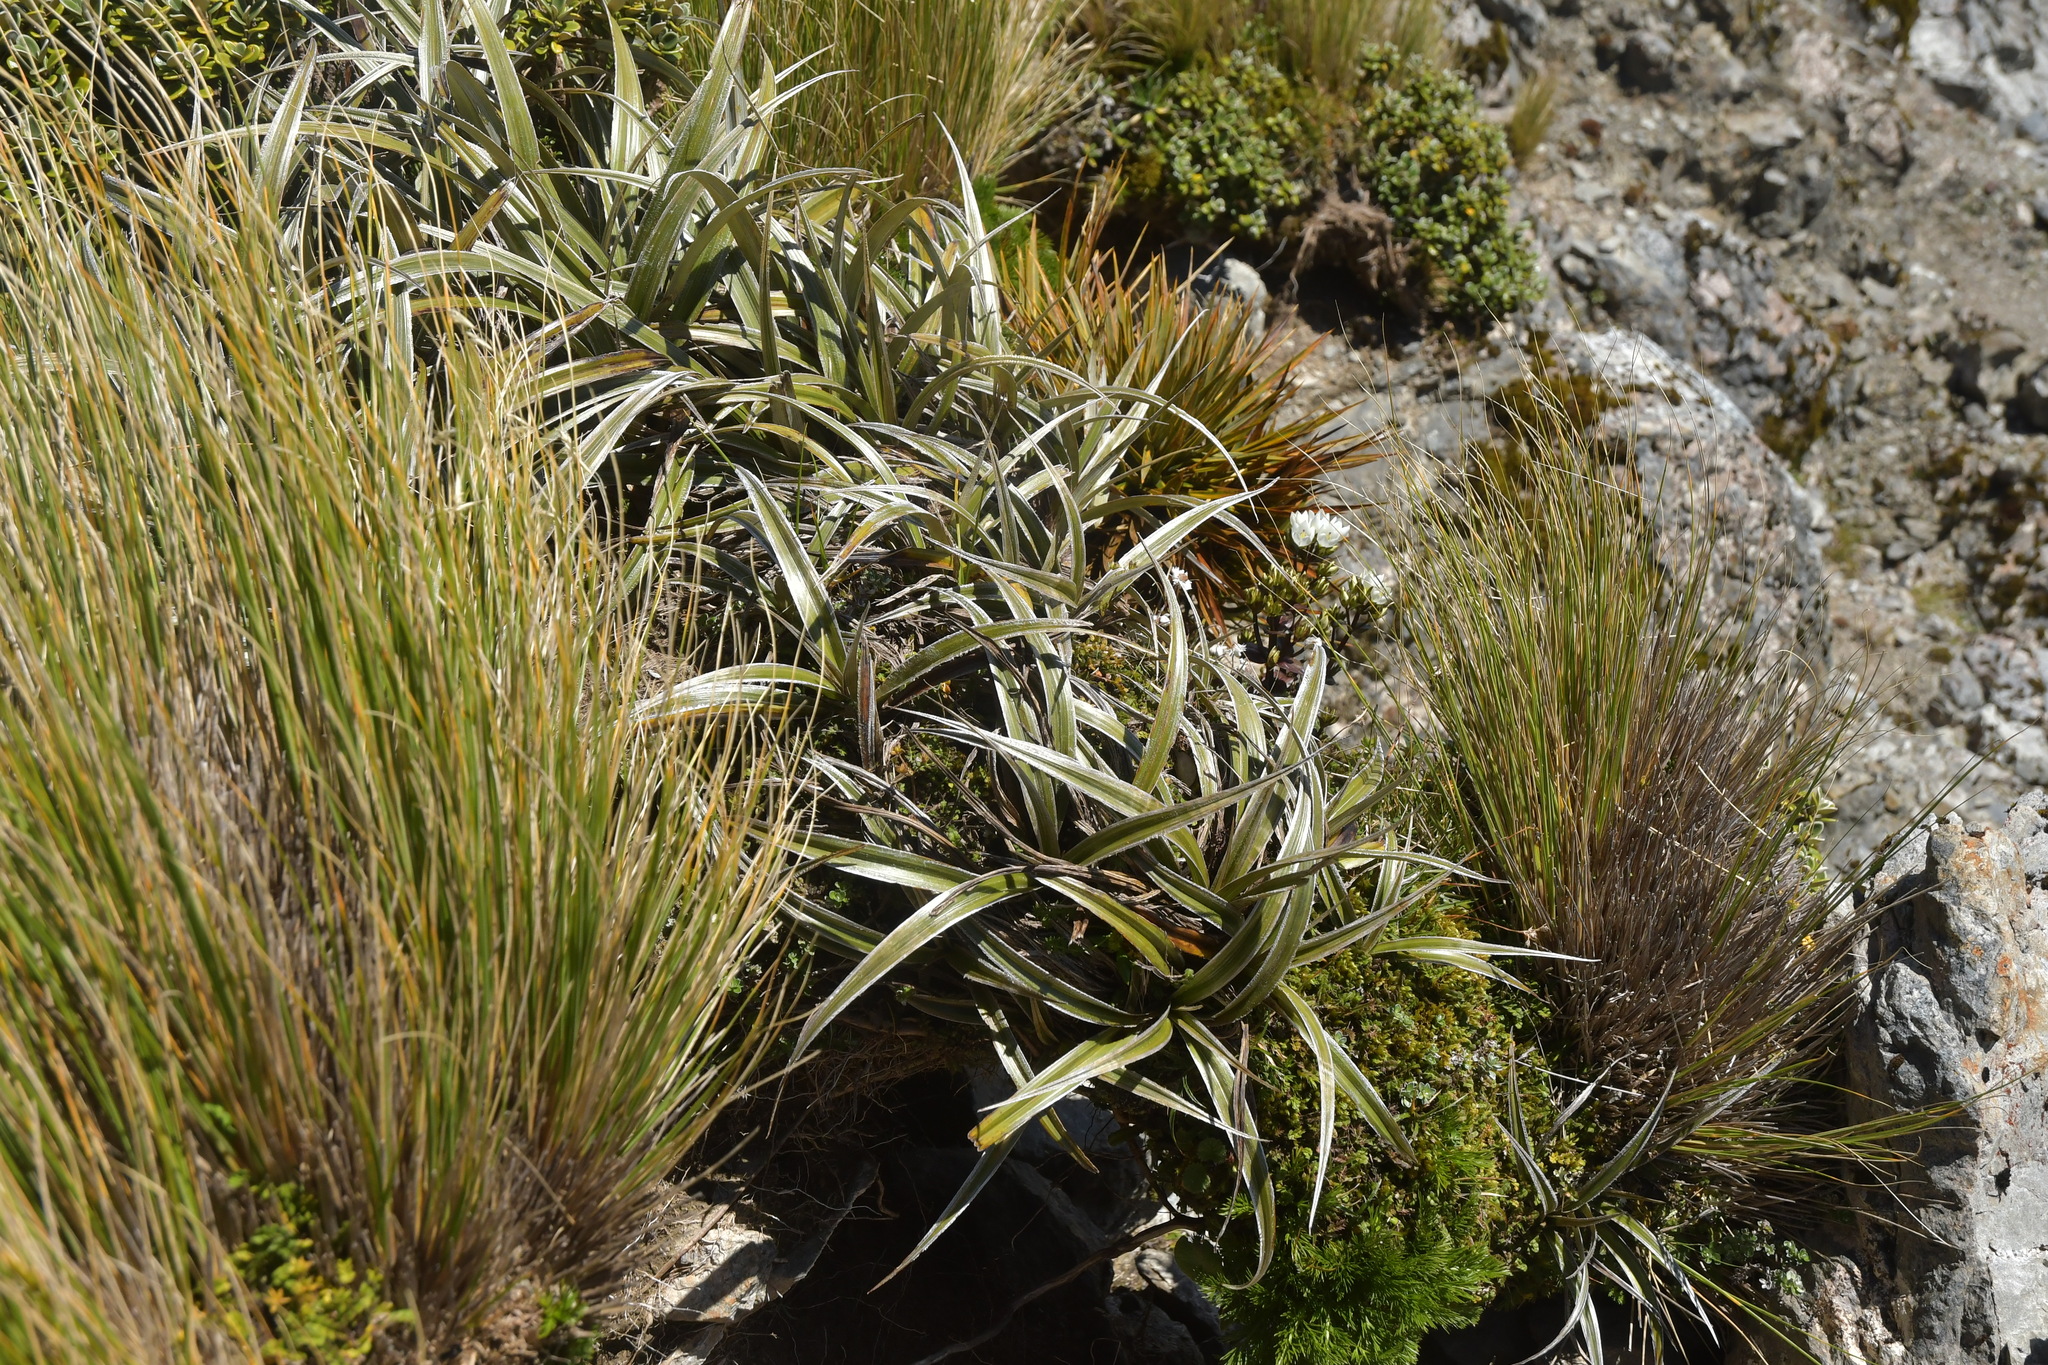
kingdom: Plantae
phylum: Tracheophyta
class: Liliopsida
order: Asparagales
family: Asteliaceae
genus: Astelia
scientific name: Astelia nervosa
